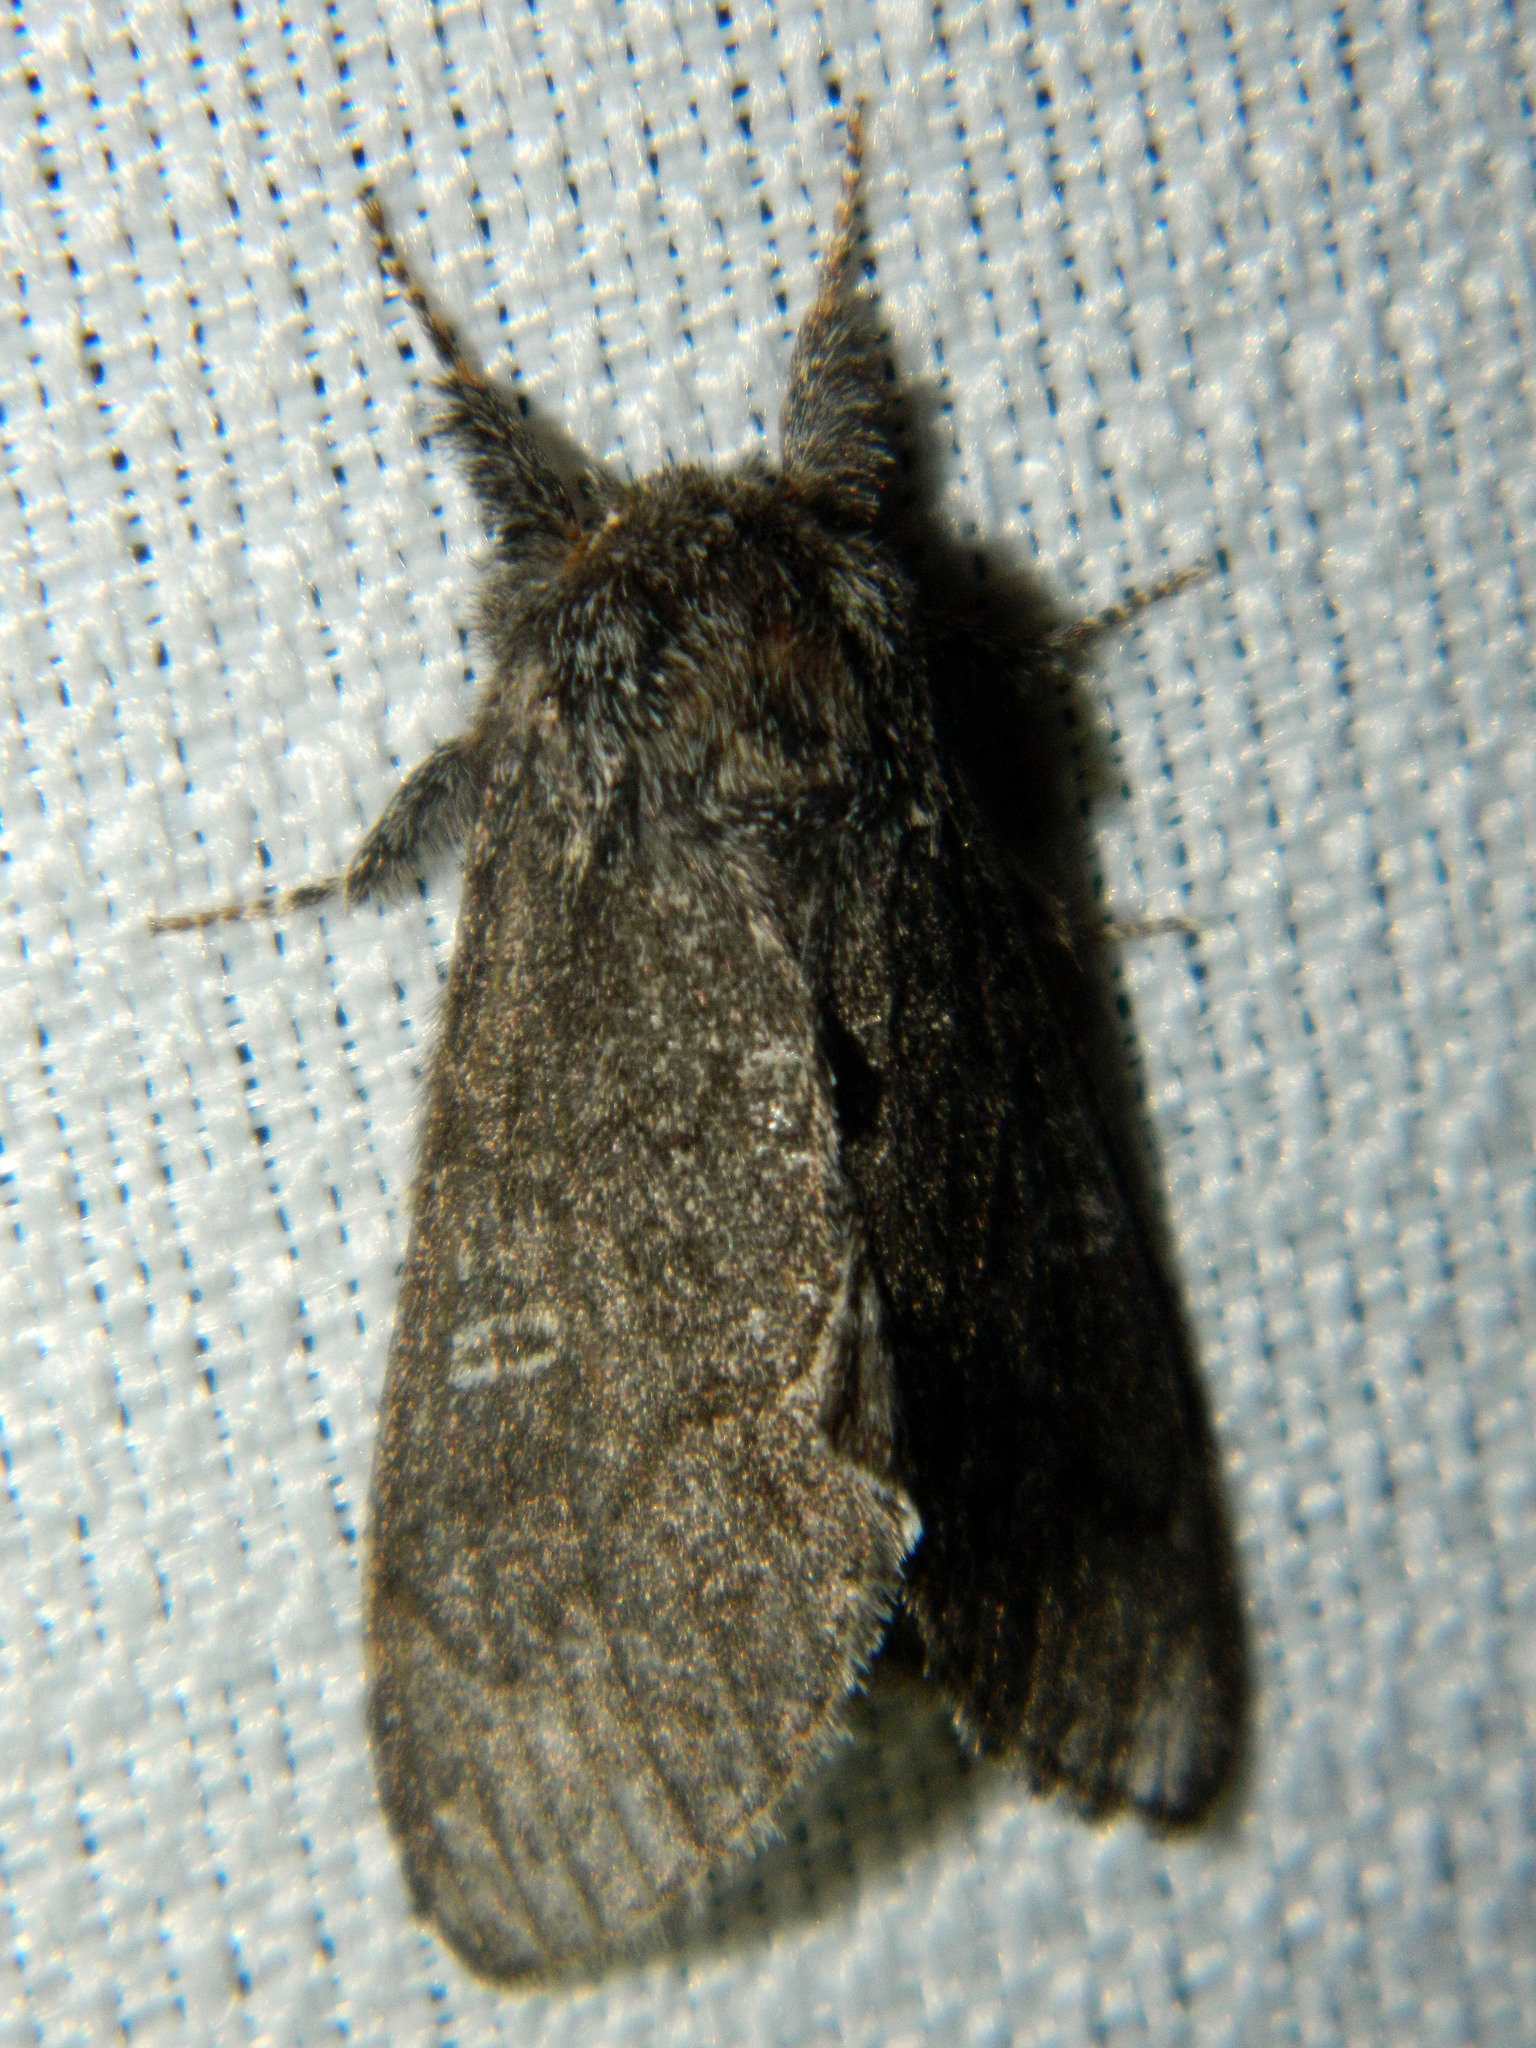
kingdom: Animalia
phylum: Arthropoda
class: Insecta
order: Lepidoptera
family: Notodontidae
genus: Notodonta
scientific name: Notodonta torva
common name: Large dark prominent
